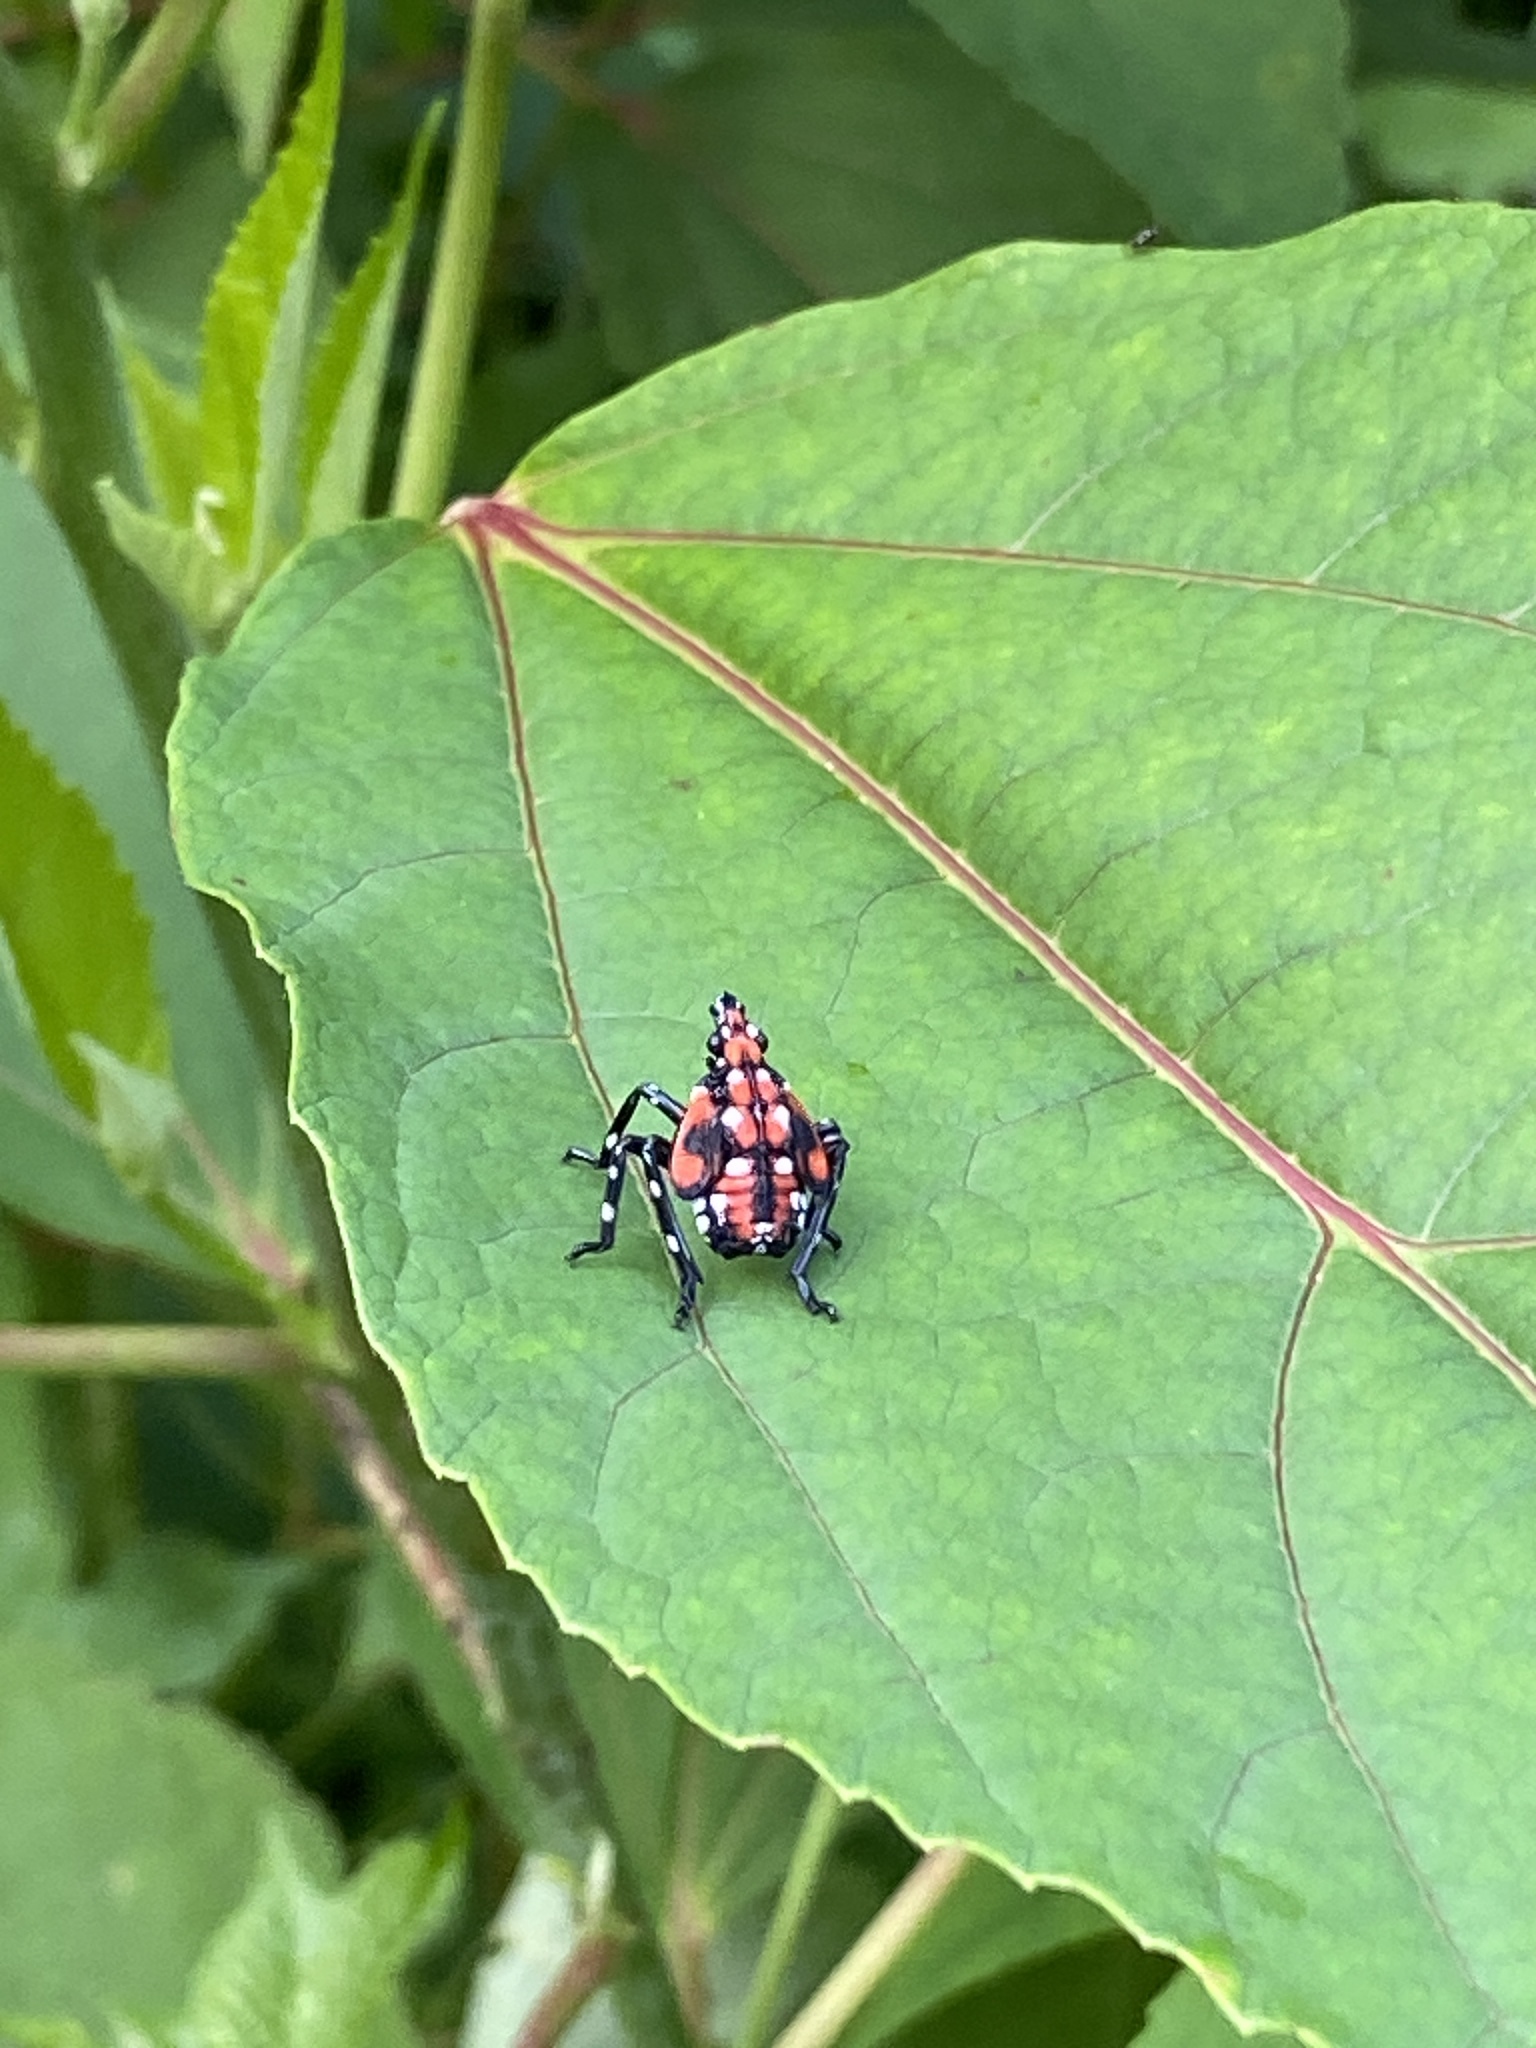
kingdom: Animalia
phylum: Arthropoda
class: Insecta
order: Hemiptera
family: Fulgoridae
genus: Lycorma
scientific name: Lycorma delicatula
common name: Spotted lanternfly
